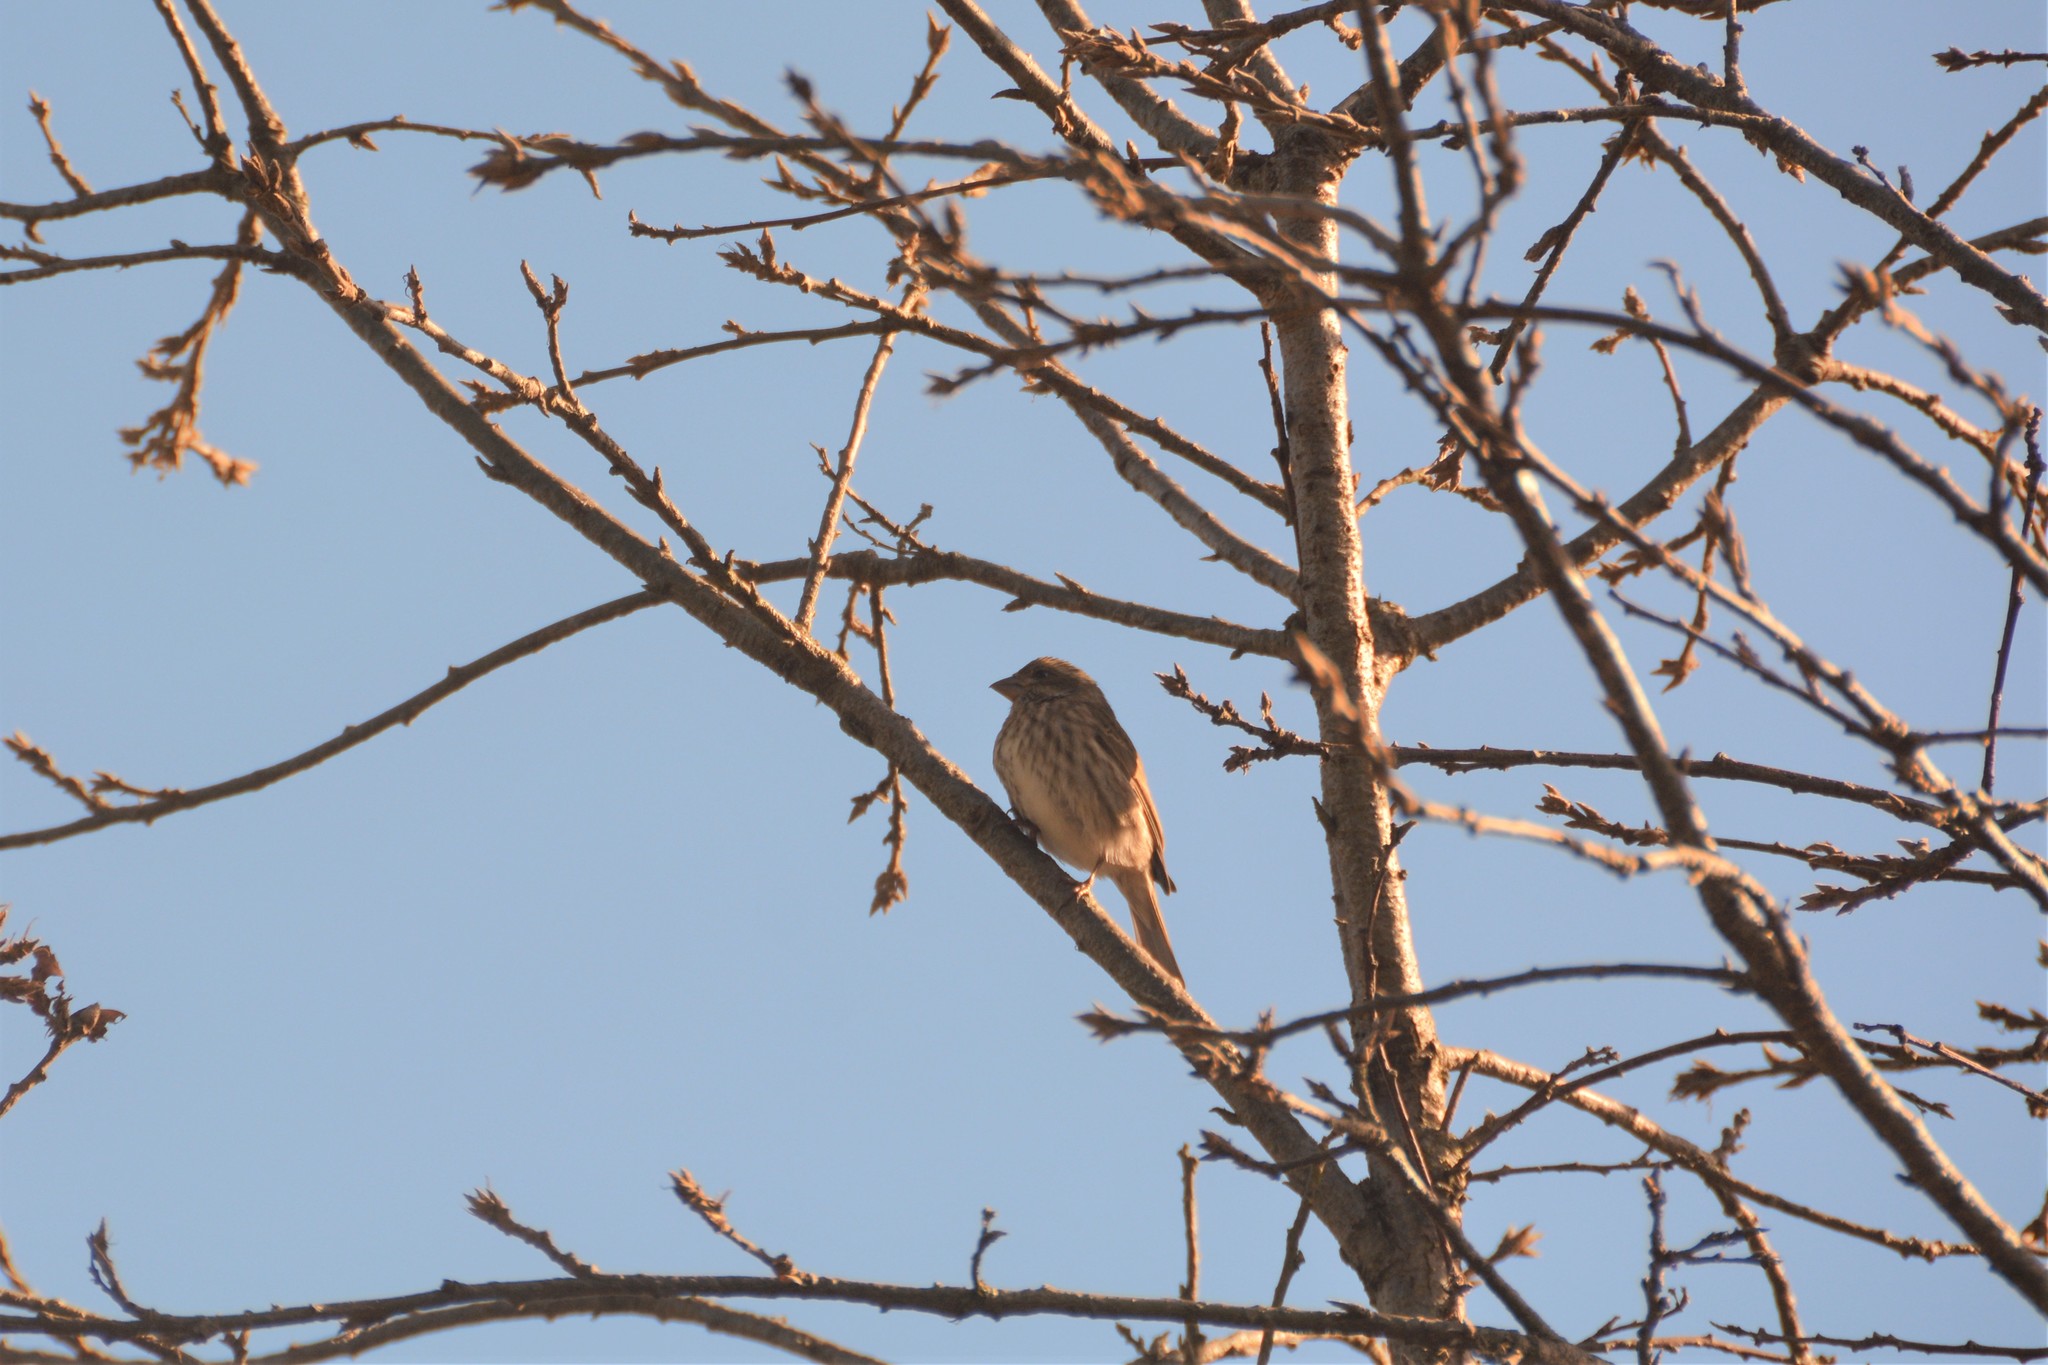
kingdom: Animalia
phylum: Chordata
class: Aves
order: Passeriformes
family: Fringillidae
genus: Haemorhous
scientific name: Haemorhous purpureus
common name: Purple finch
